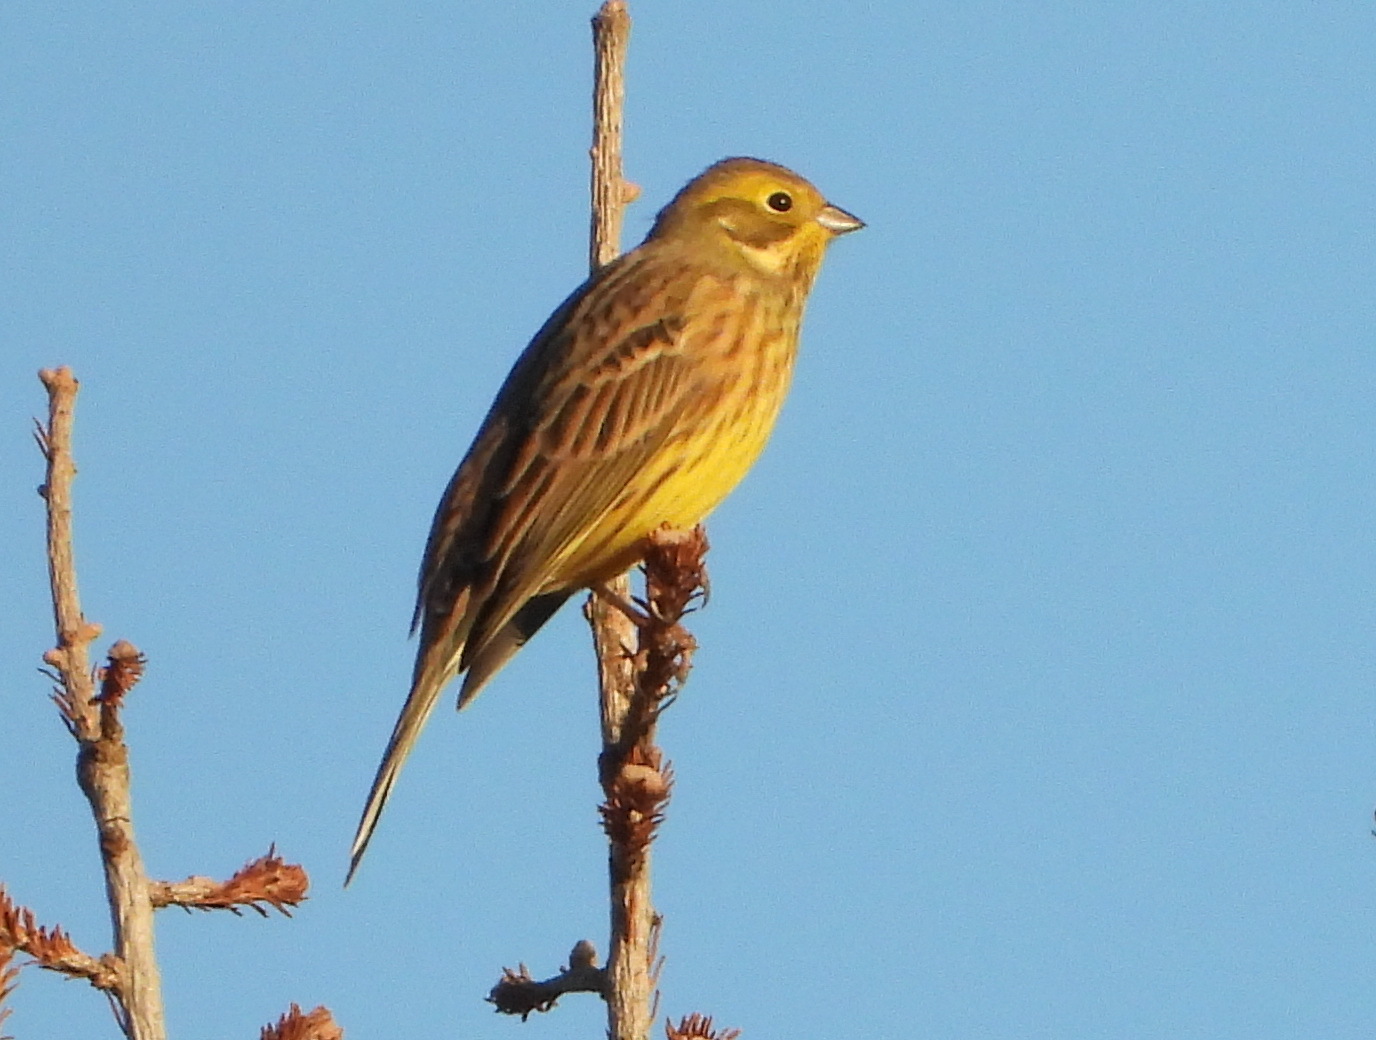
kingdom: Animalia
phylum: Chordata
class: Aves
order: Passeriformes
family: Emberizidae
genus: Emberiza
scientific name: Emberiza citrinella
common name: Yellowhammer
